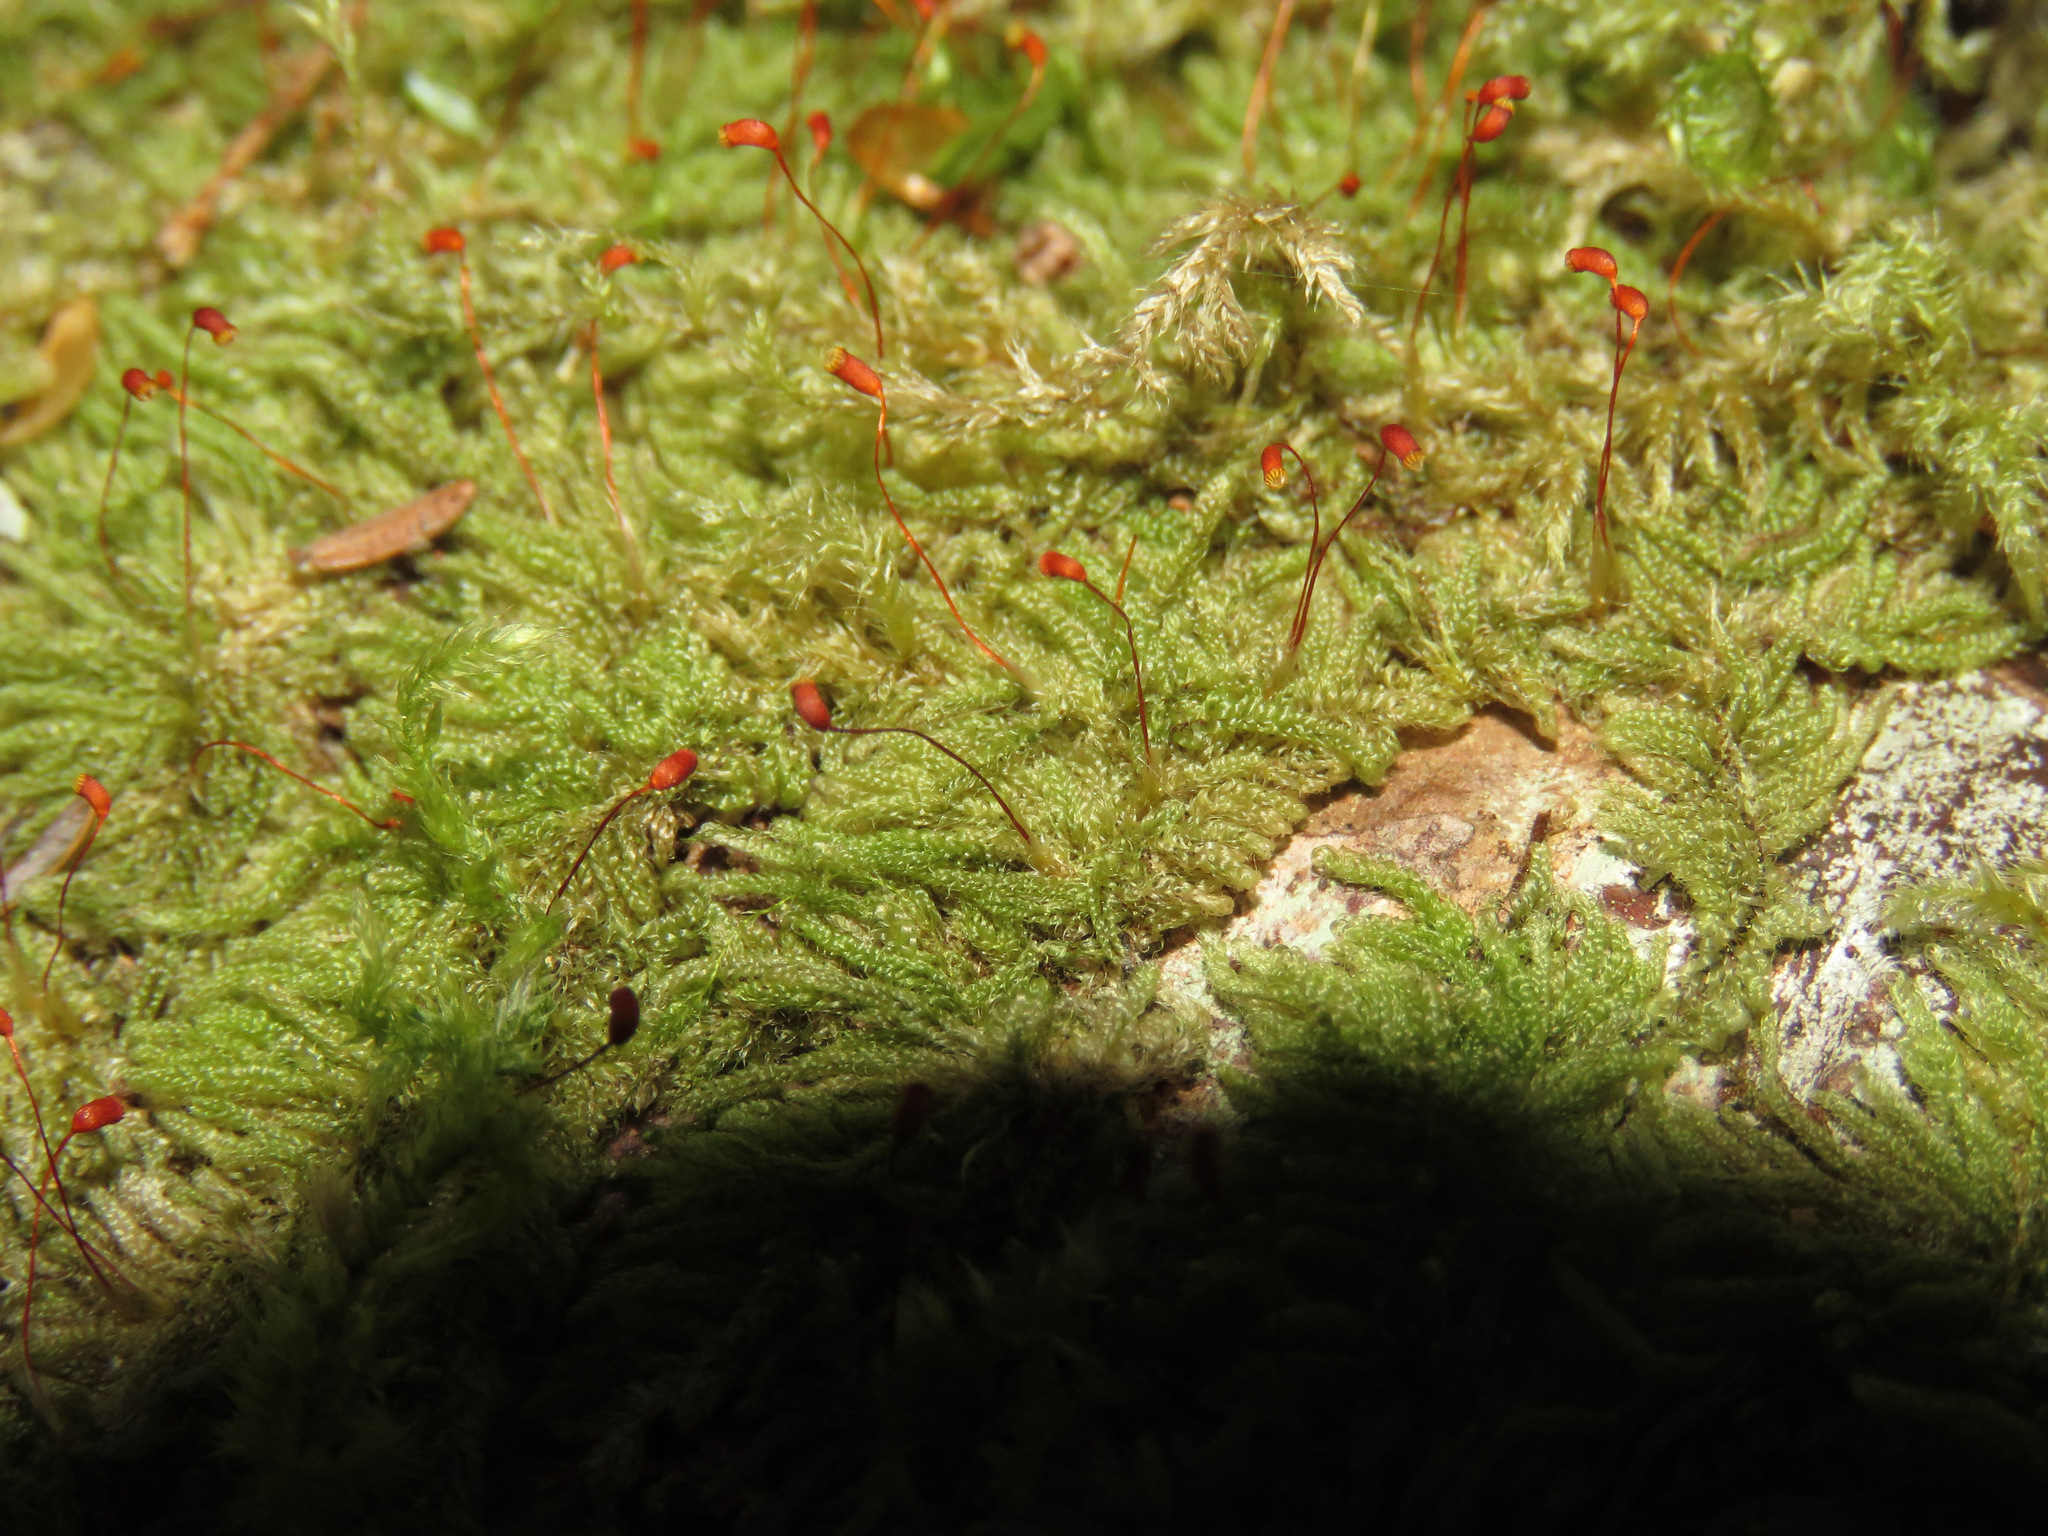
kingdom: Plantae
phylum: Bryophyta
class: Bryopsida
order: Hypnales
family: Pylaisiadelphaceae
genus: Trochophyllohypnum
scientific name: Trochophyllohypnum circinale
